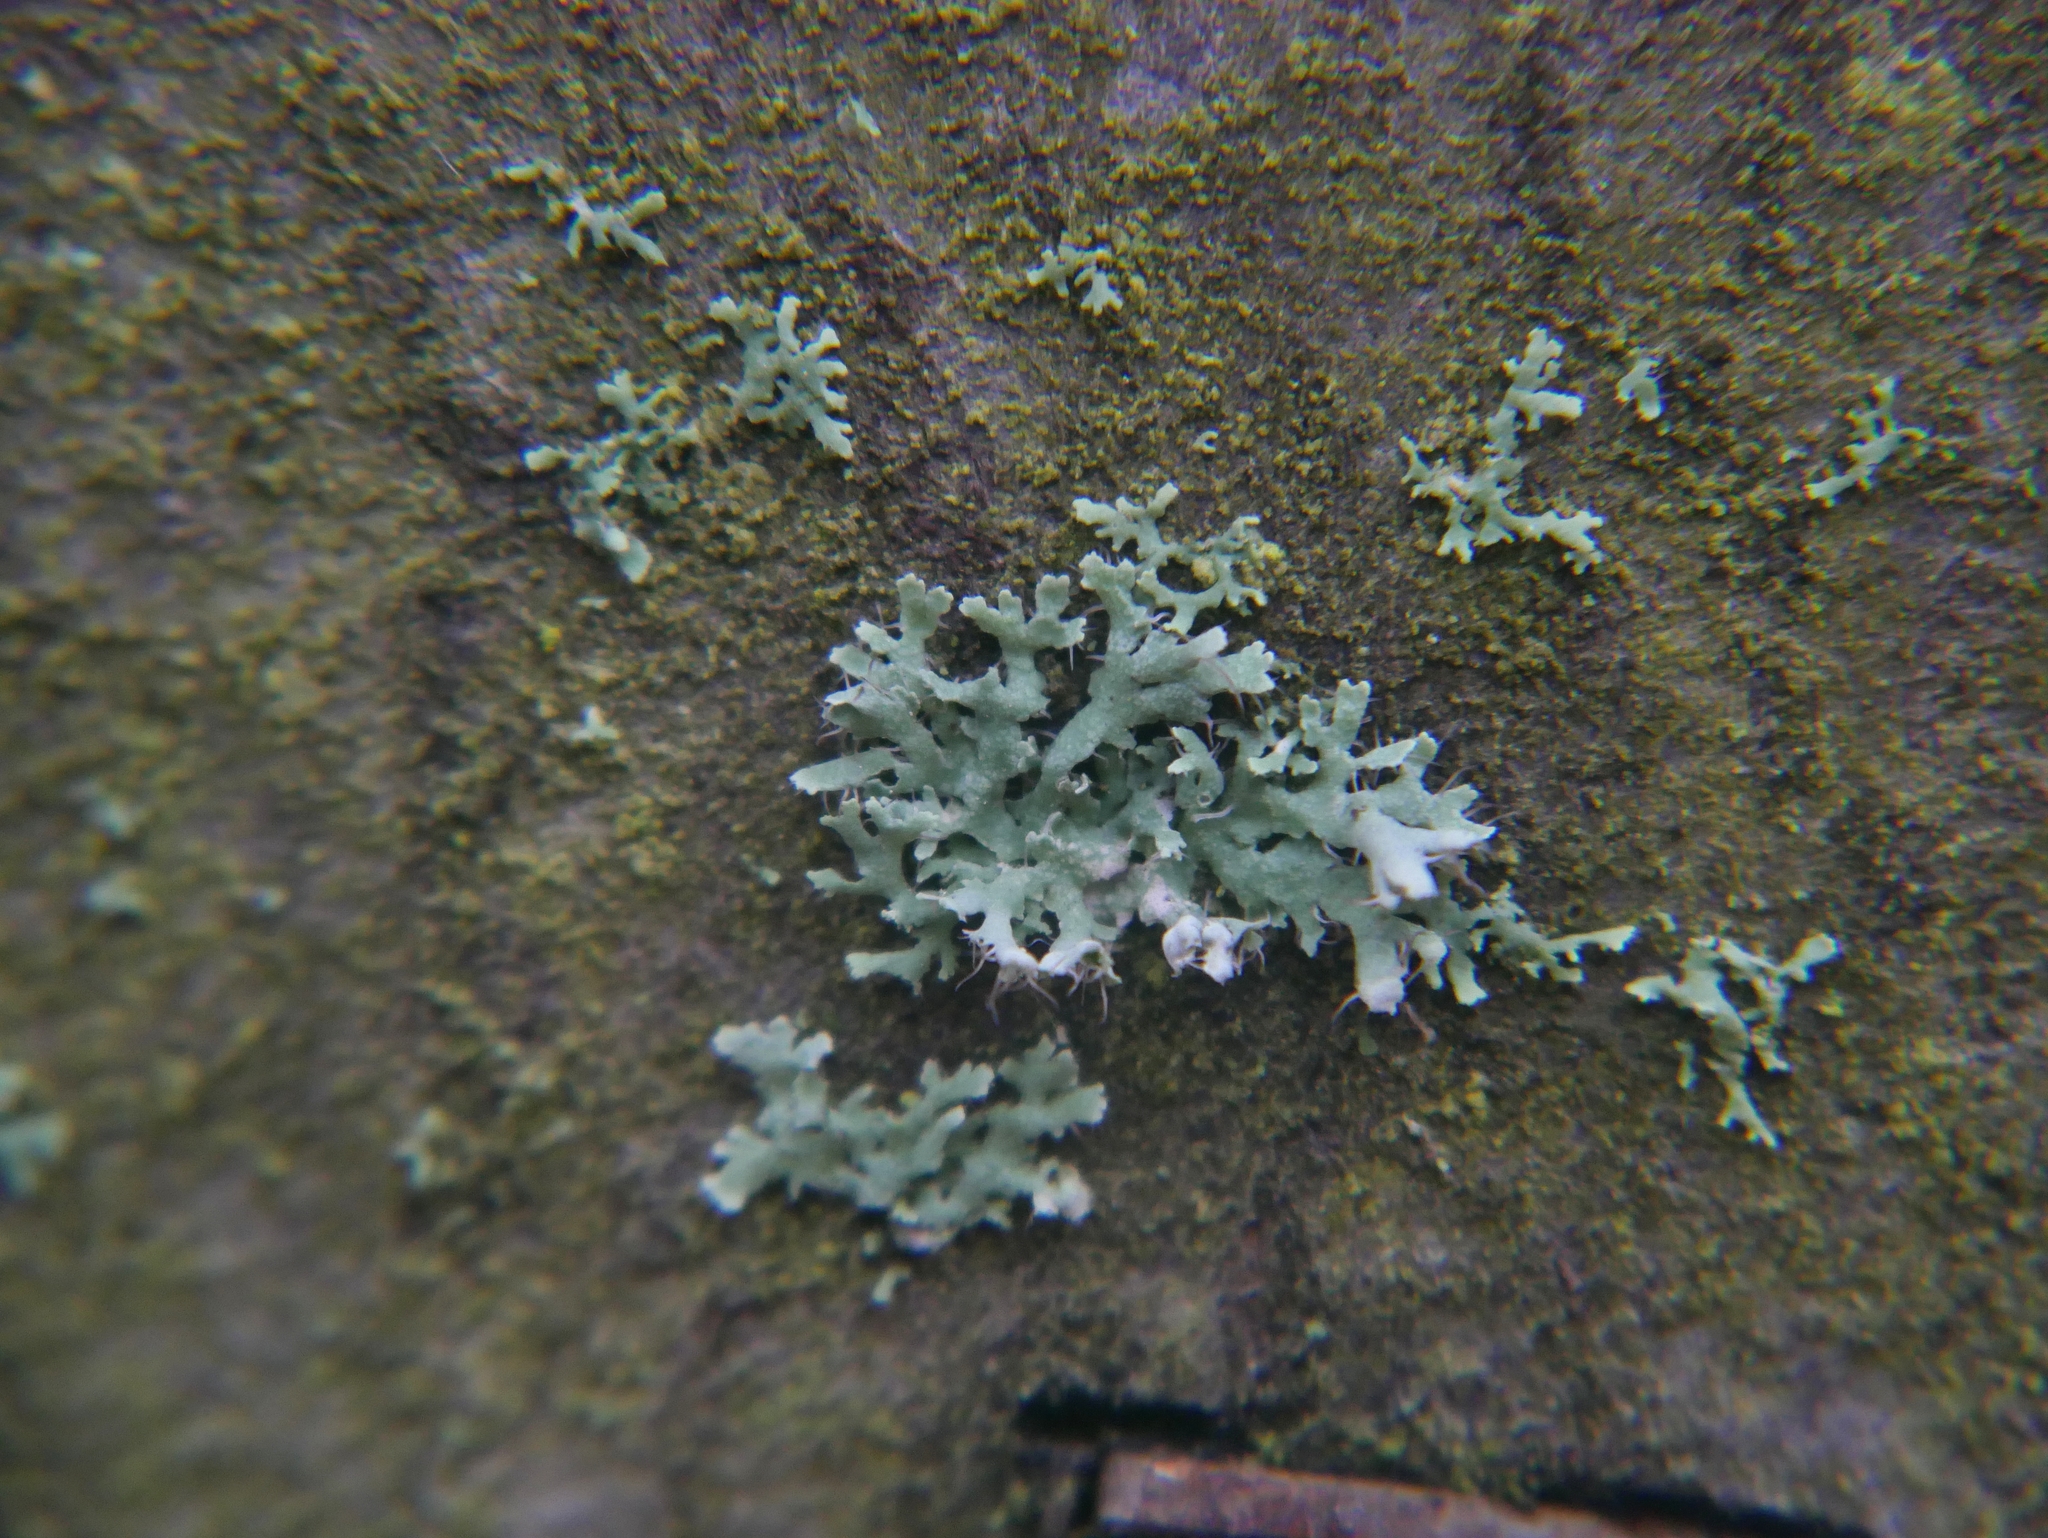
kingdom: Fungi
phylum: Ascomycota
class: Lecanoromycetes
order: Caliciales
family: Physciaceae
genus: Physcia
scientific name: Physcia adscendens
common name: Hooded rosette lichen
